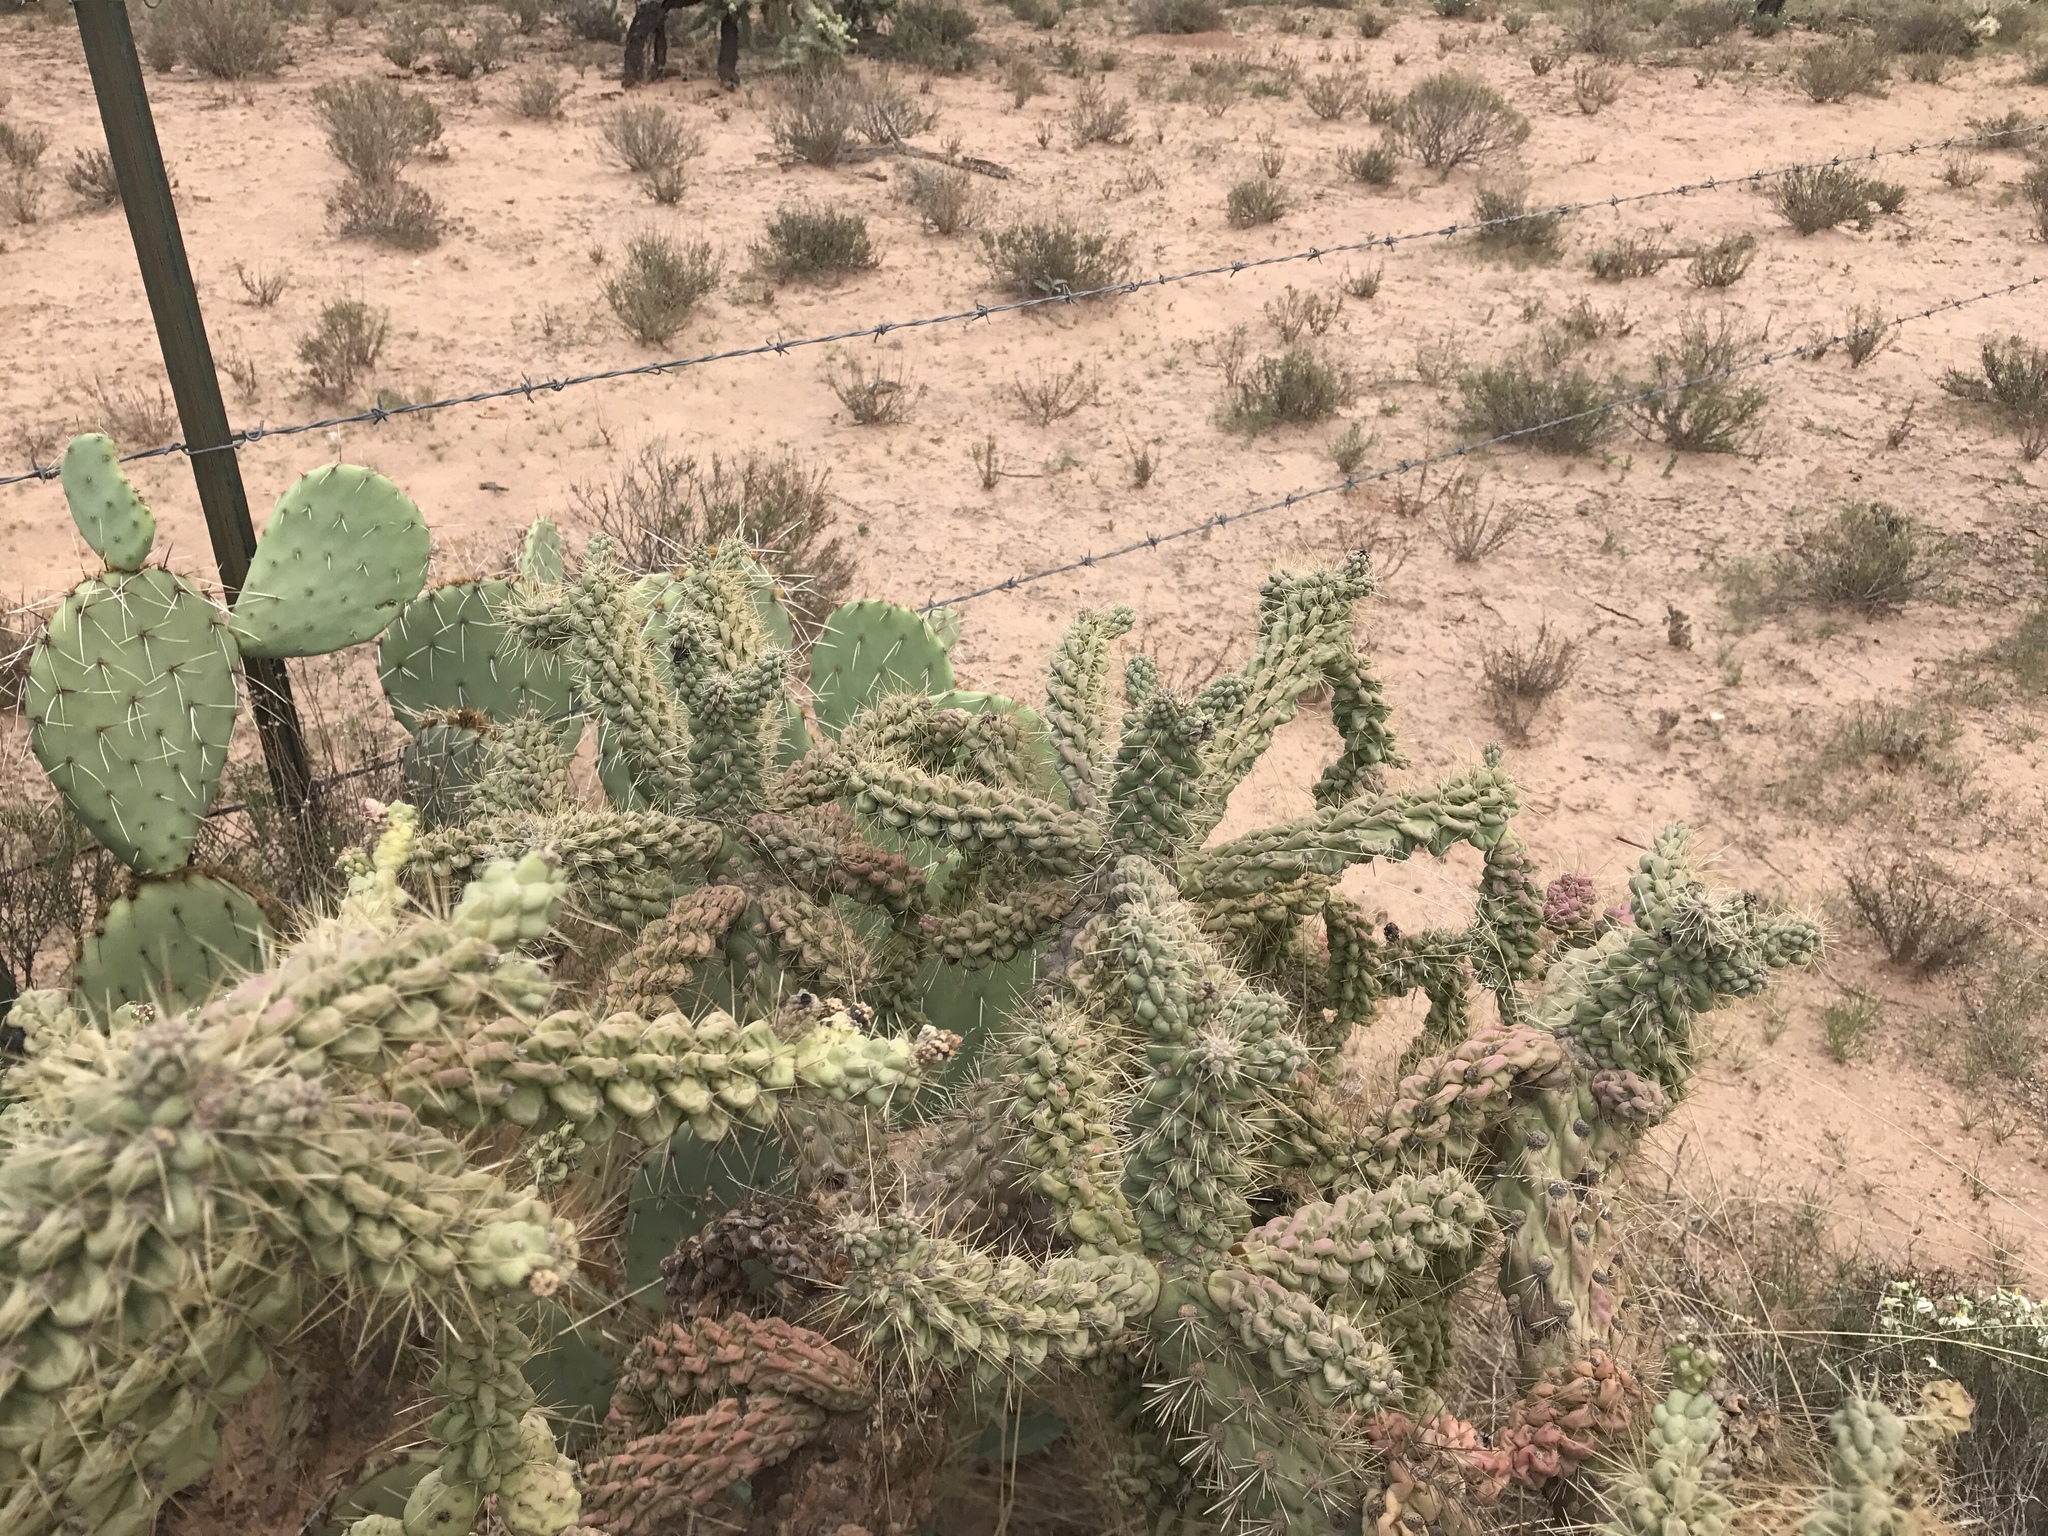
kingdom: Plantae
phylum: Tracheophyta
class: Magnoliopsida
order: Caryophyllales
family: Cactaceae
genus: Cylindropuntia
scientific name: Cylindropuntia fulgida
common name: Jumping cholla
